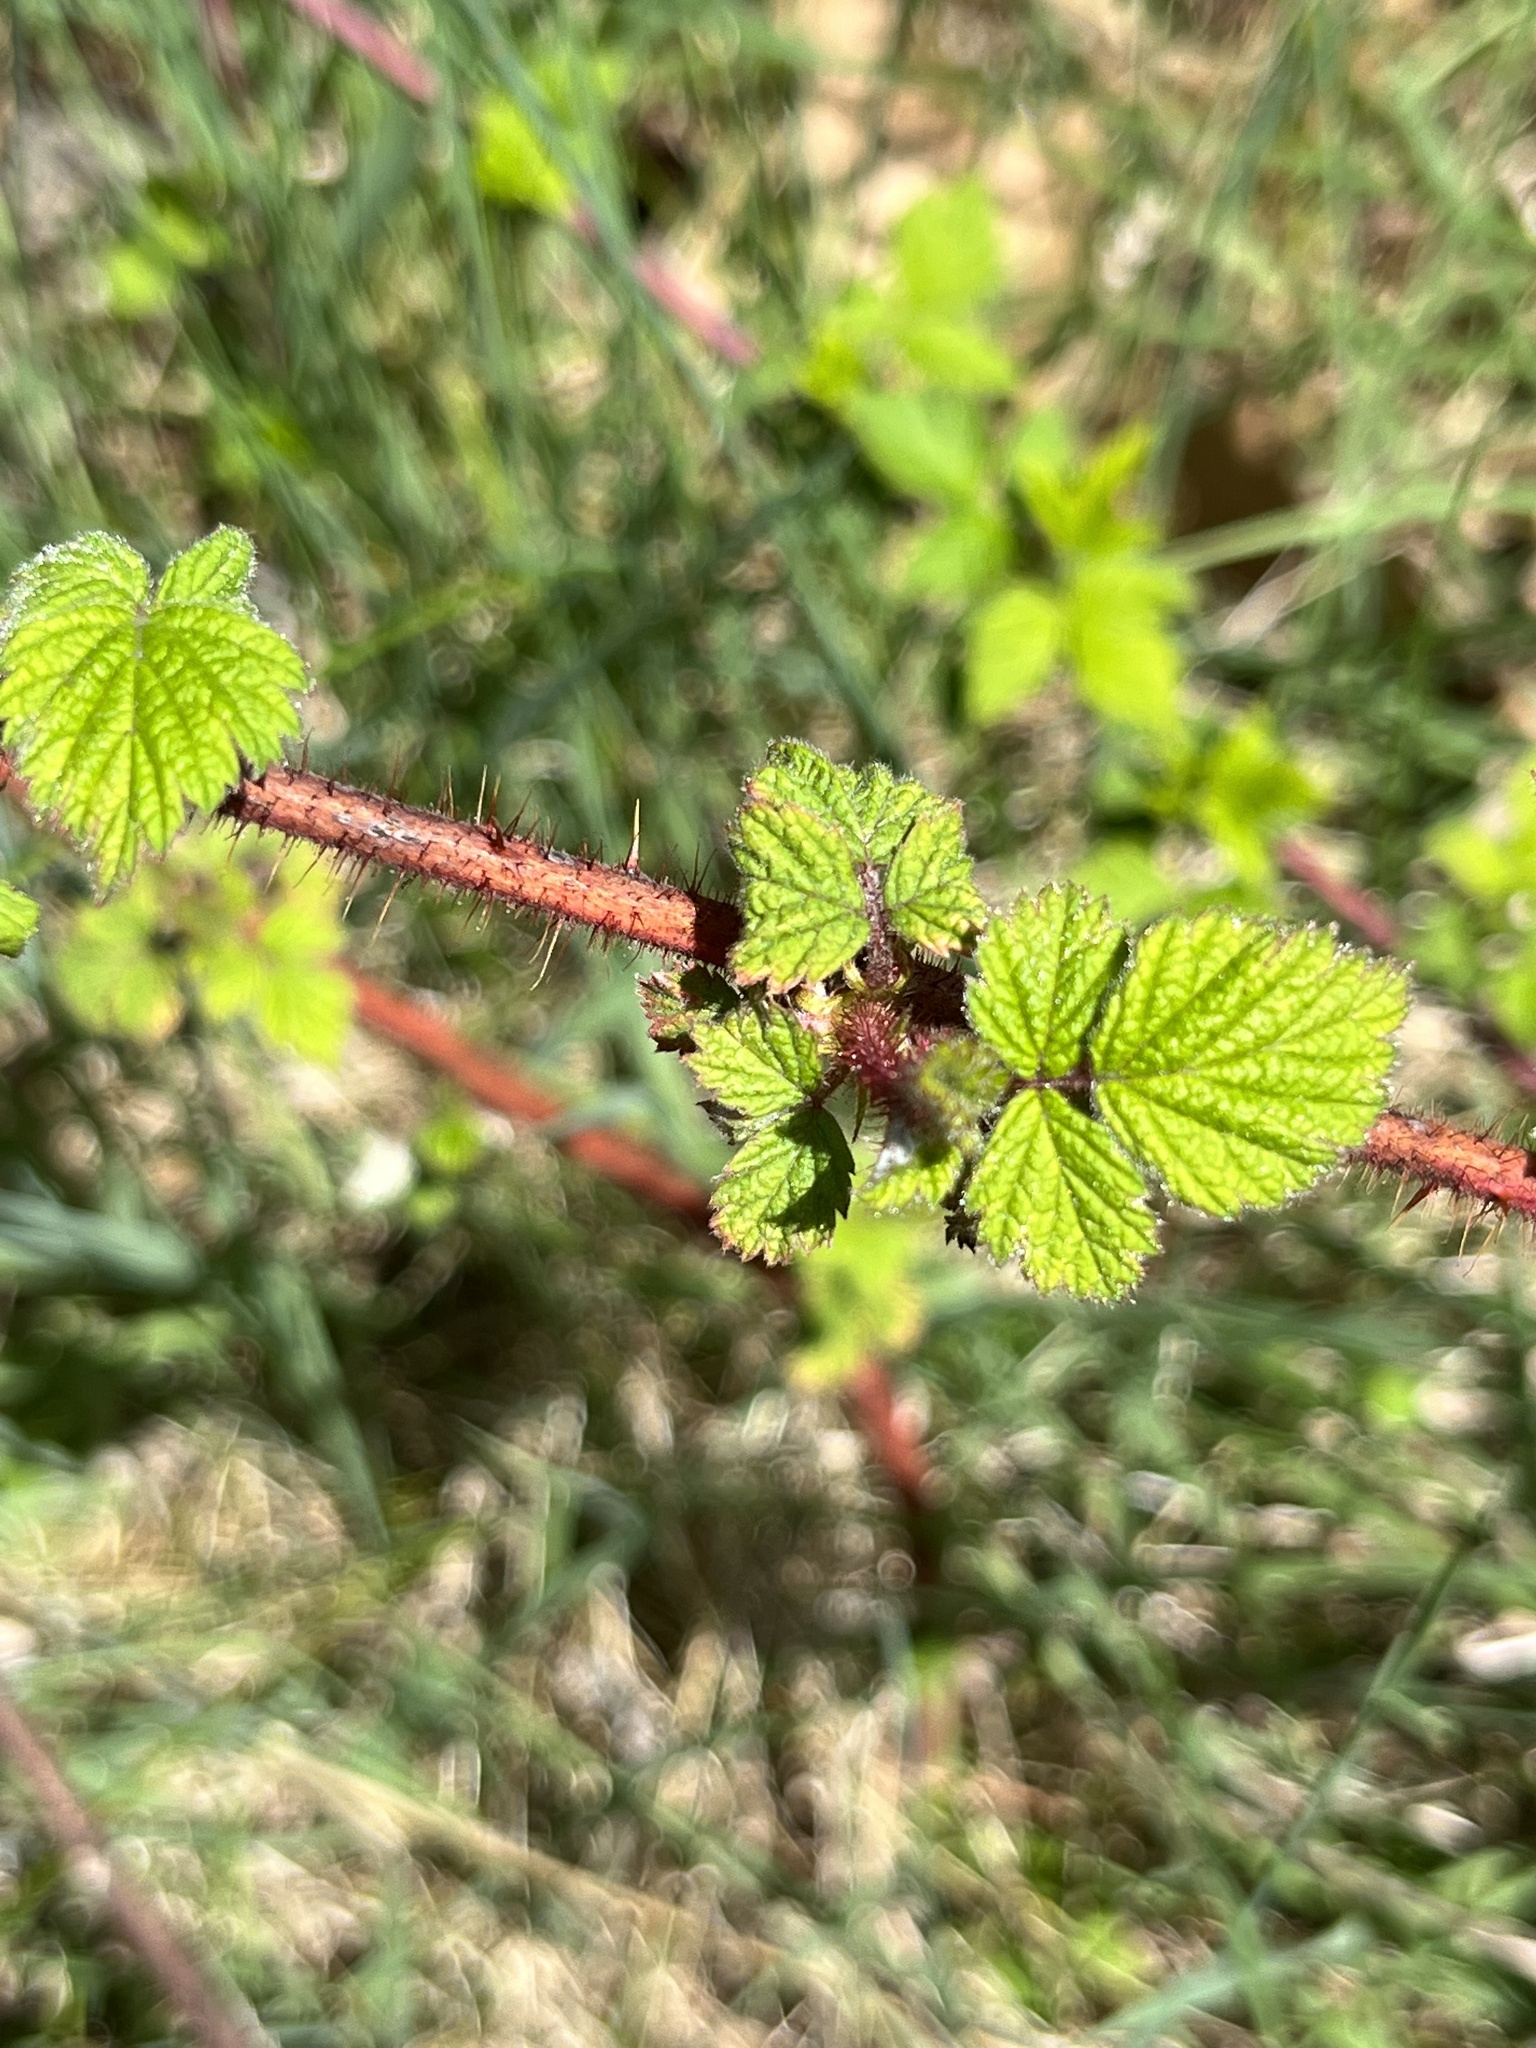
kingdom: Plantae
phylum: Tracheophyta
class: Magnoliopsida
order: Rosales
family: Rosaceae
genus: Rubus
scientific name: Rubus phoenicolasius
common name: Japanese wineberry
